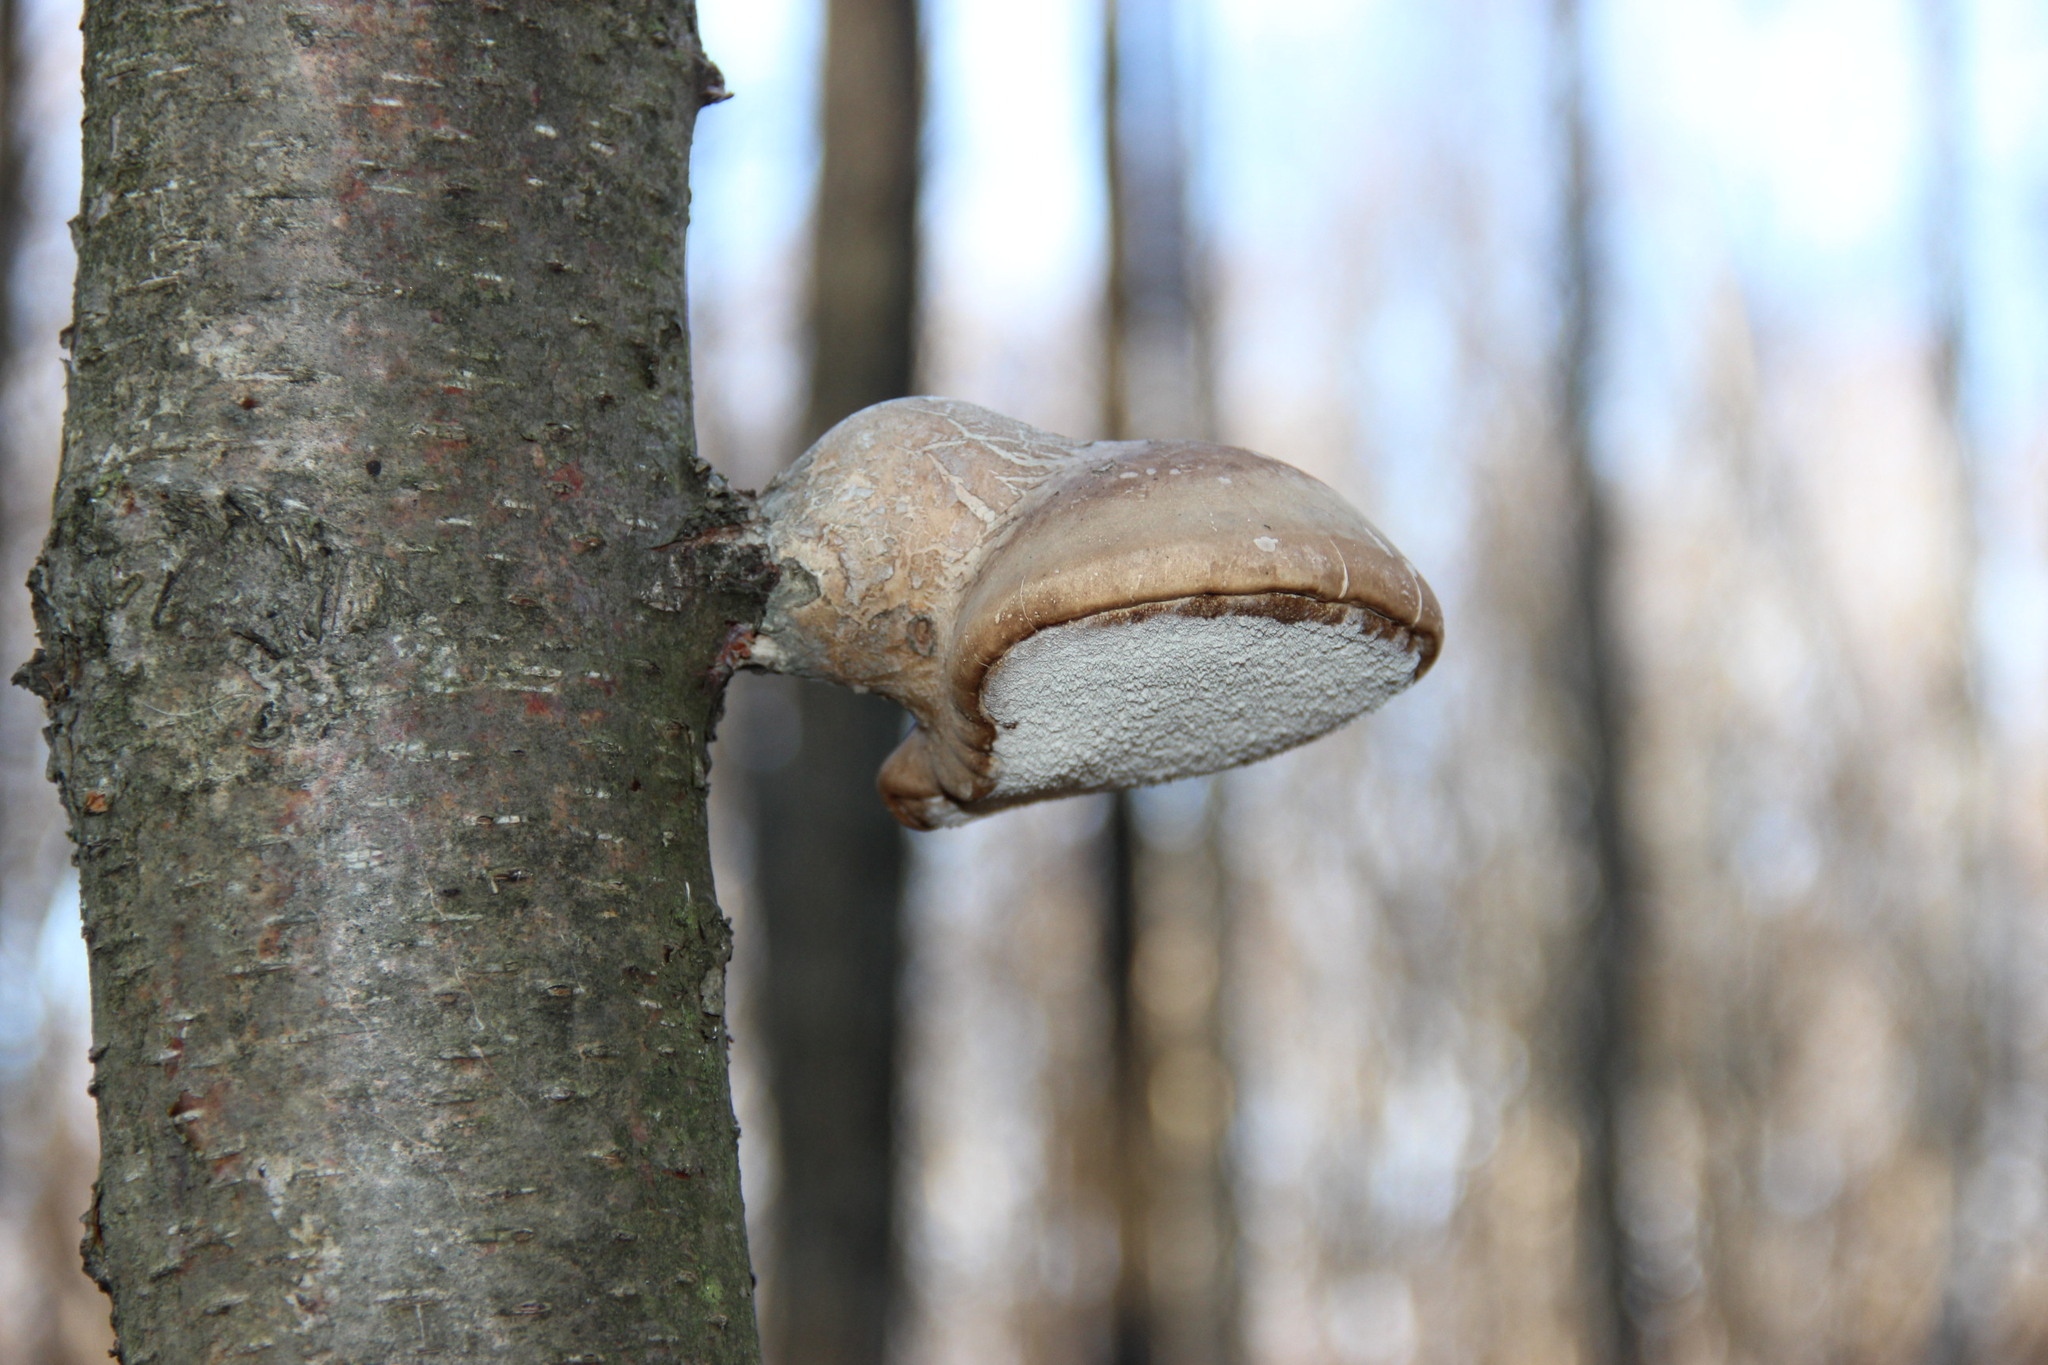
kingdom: Fungi
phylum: Basidiomycota
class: Agaricomycetes
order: Polyporales
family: Fomitopsidaceae
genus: Fomitopsis
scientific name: Fomitopsis betulina
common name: Birch polypore
